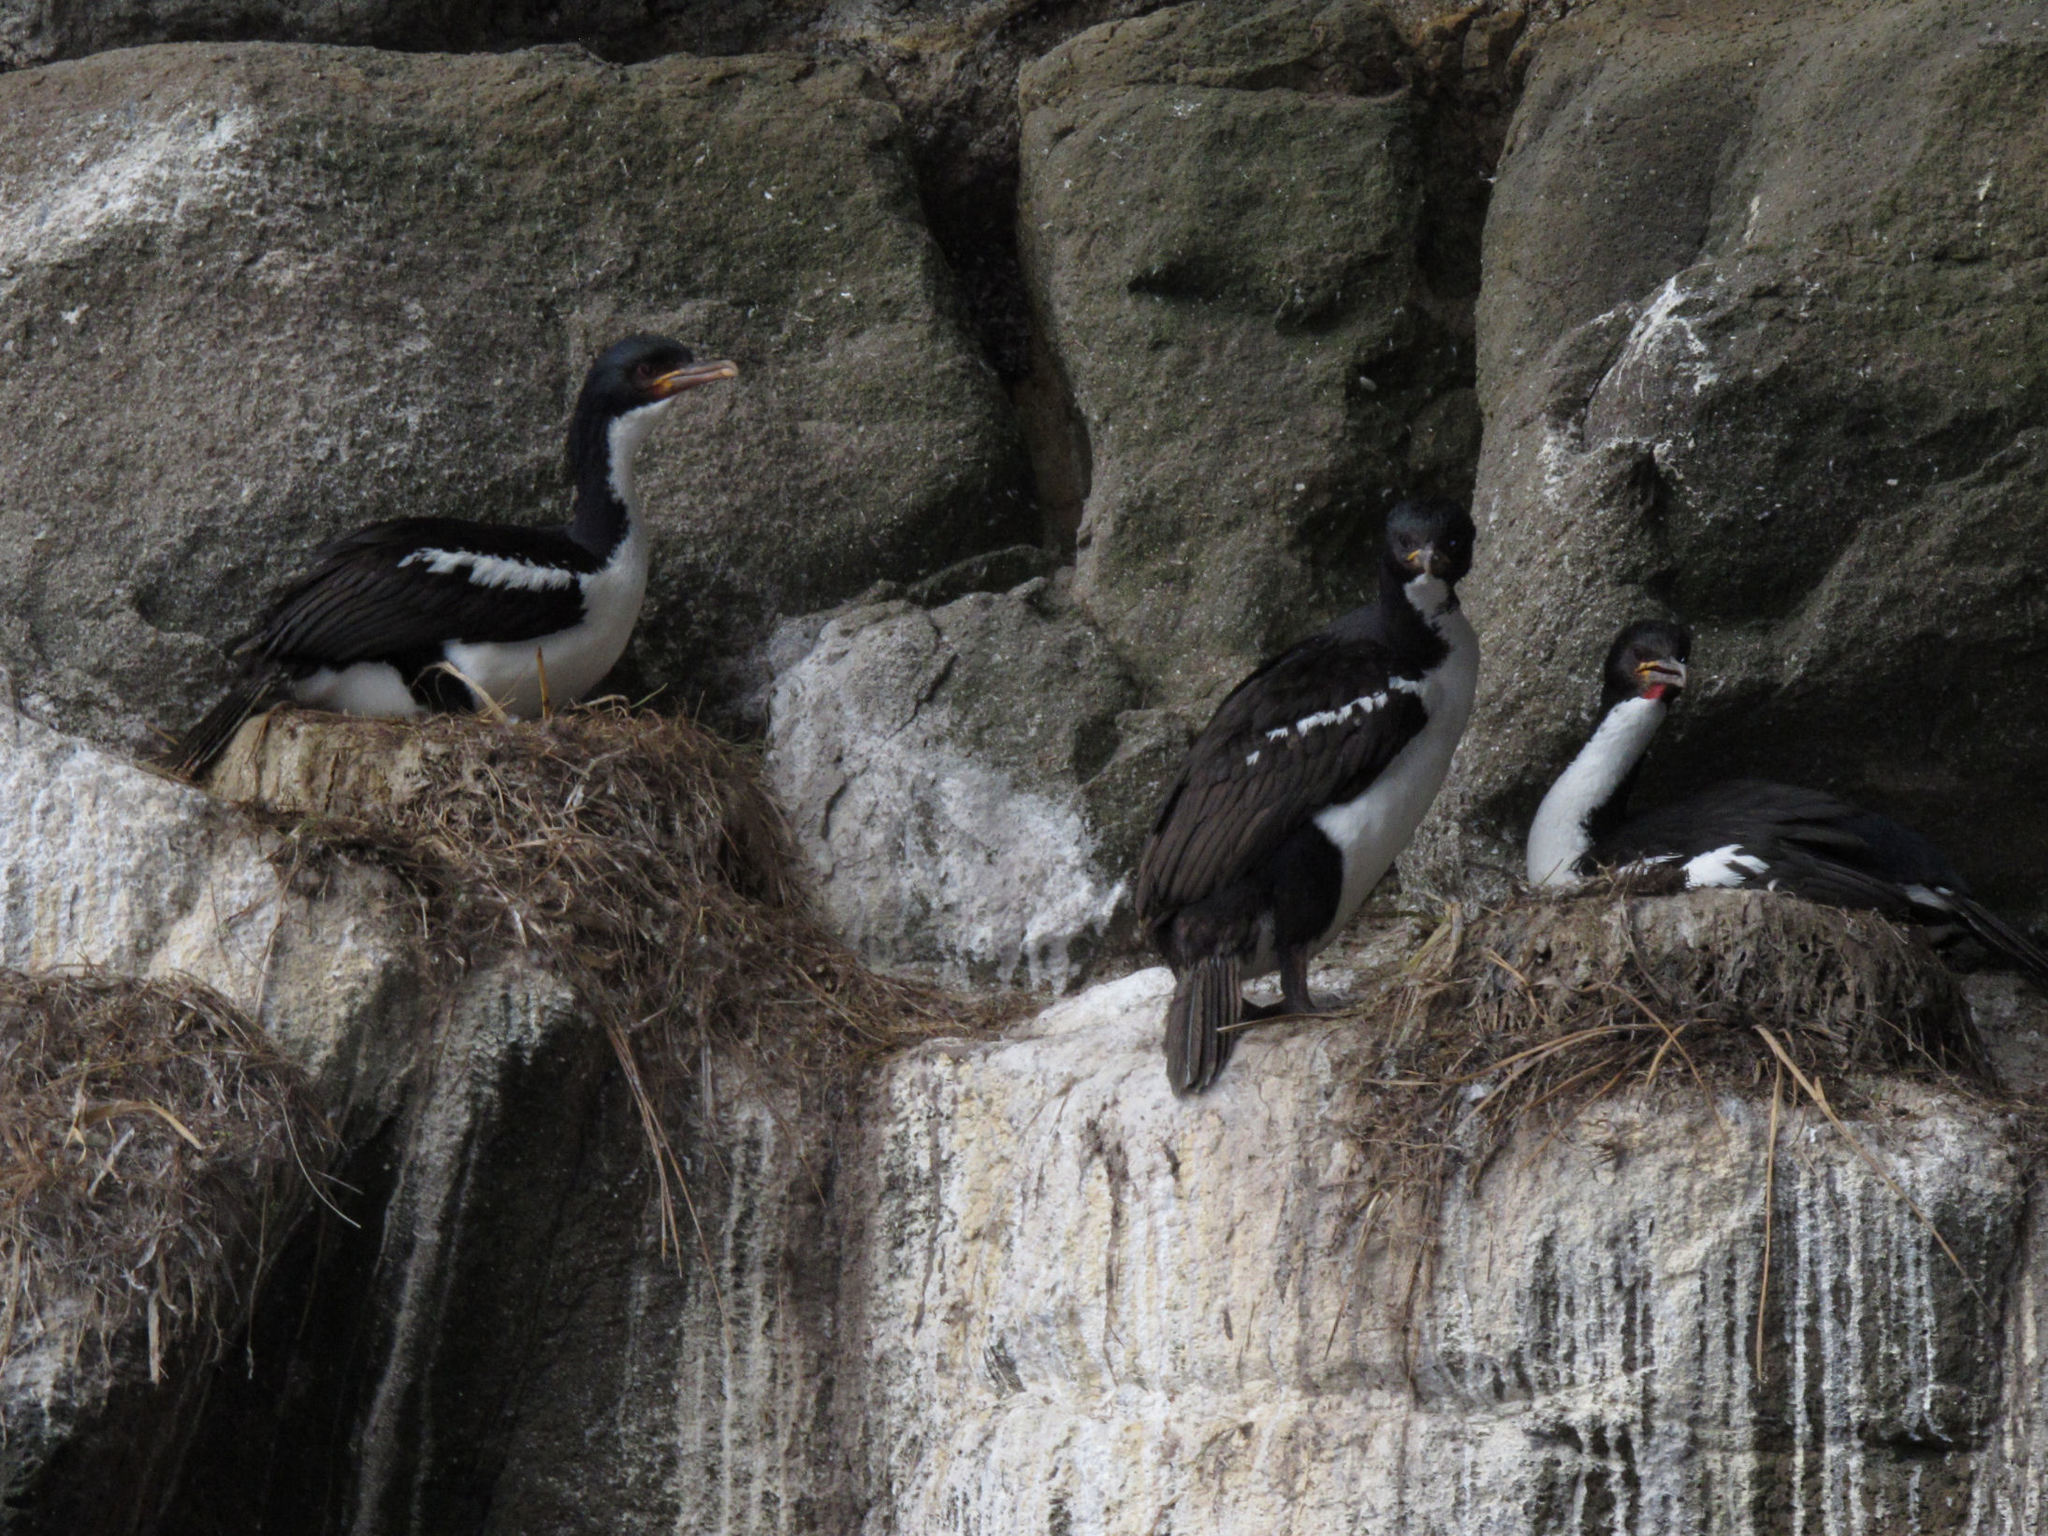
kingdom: Animalia
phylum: Chordata
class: Aves
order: Suliformes
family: Phalacrocoracidae
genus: Leucocarbo
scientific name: Leucocarbo colensoi
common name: Auckland shag
